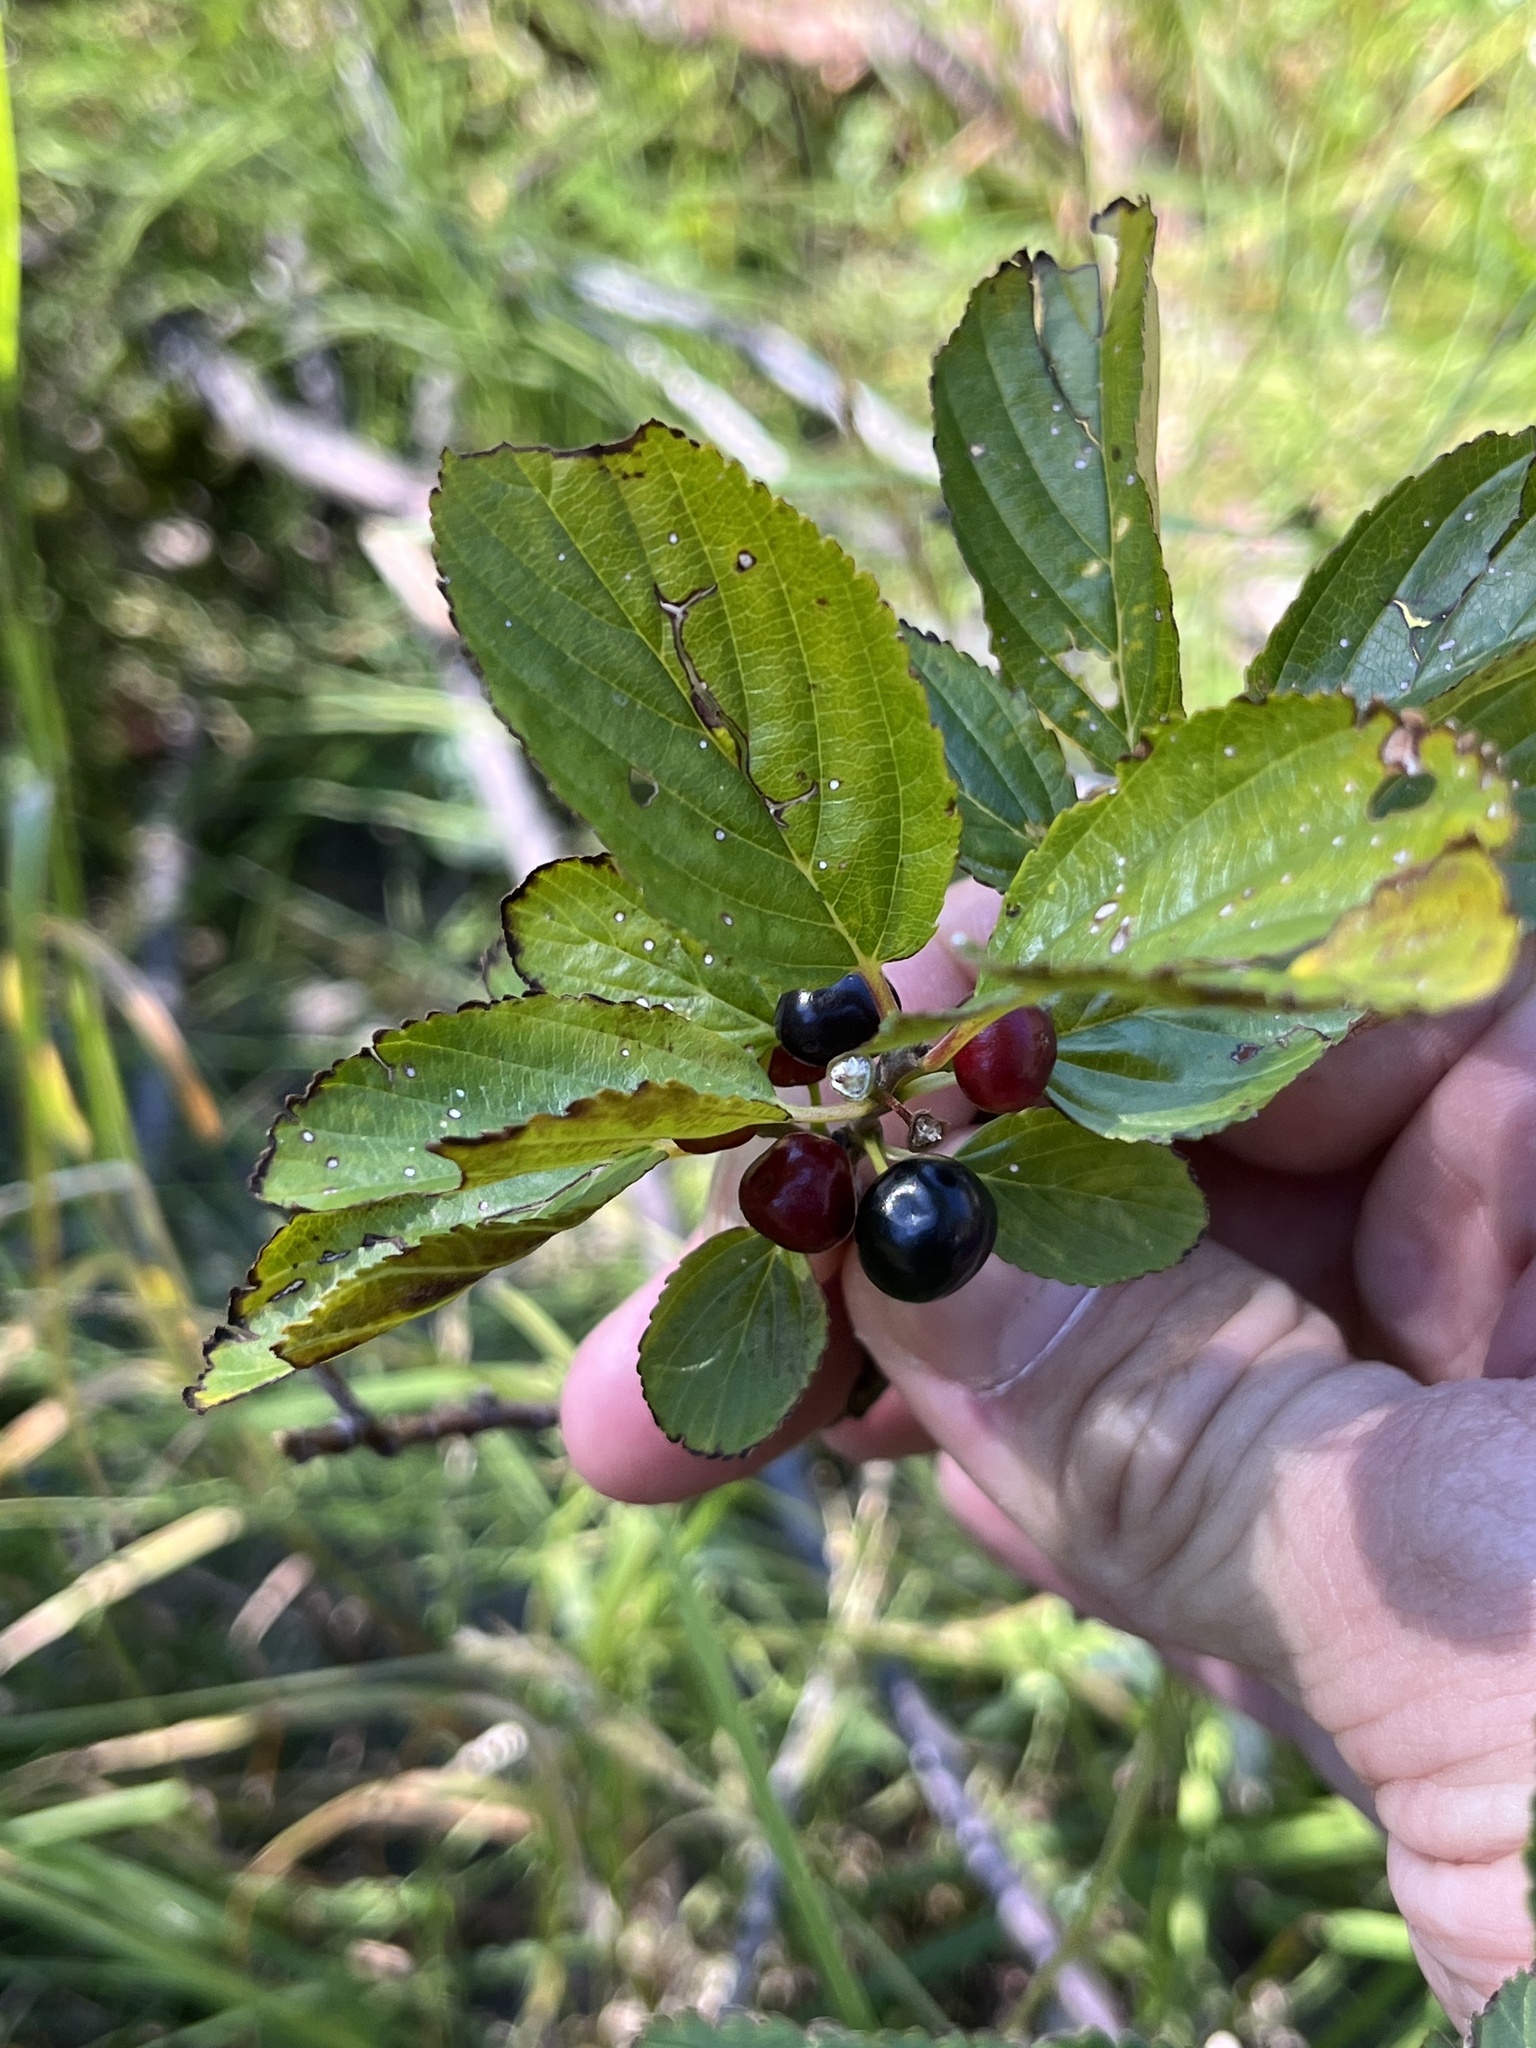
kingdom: Plantae
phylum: Tracheophyta
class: Magnoliopsida
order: Rosales
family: Rhamnaceae
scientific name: Rhamnaceae
